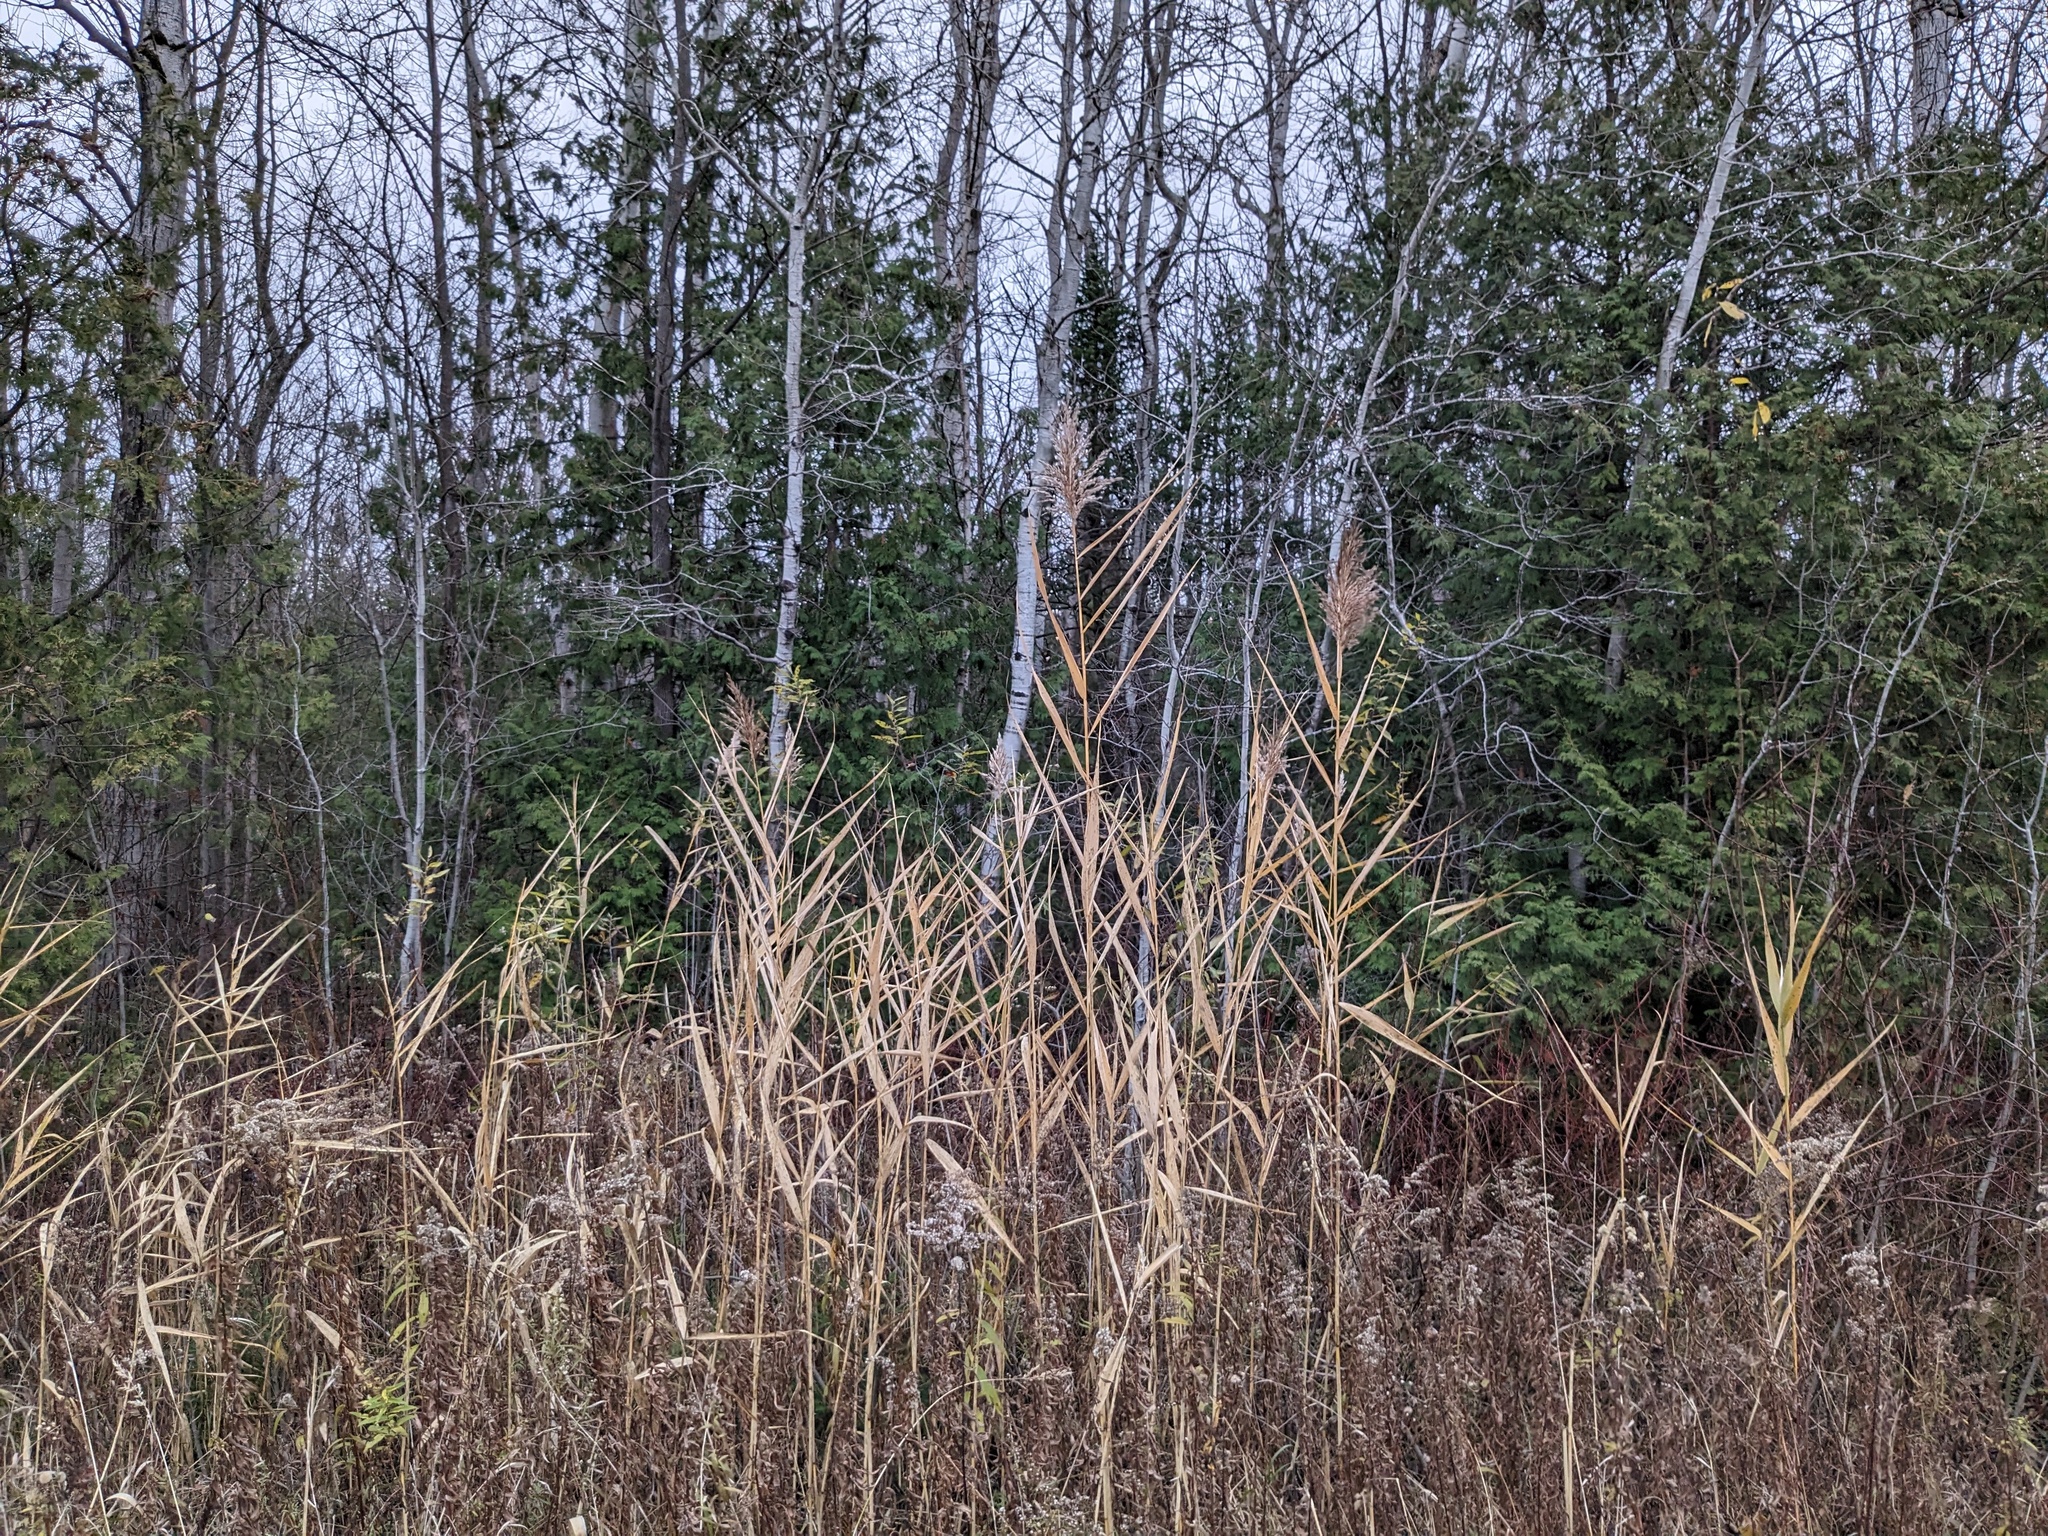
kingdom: Plantae
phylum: Tracheophyta
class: Liliopsida
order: Poales
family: Poaceae
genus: Phragmites
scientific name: Phragmites australis
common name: Common reed
